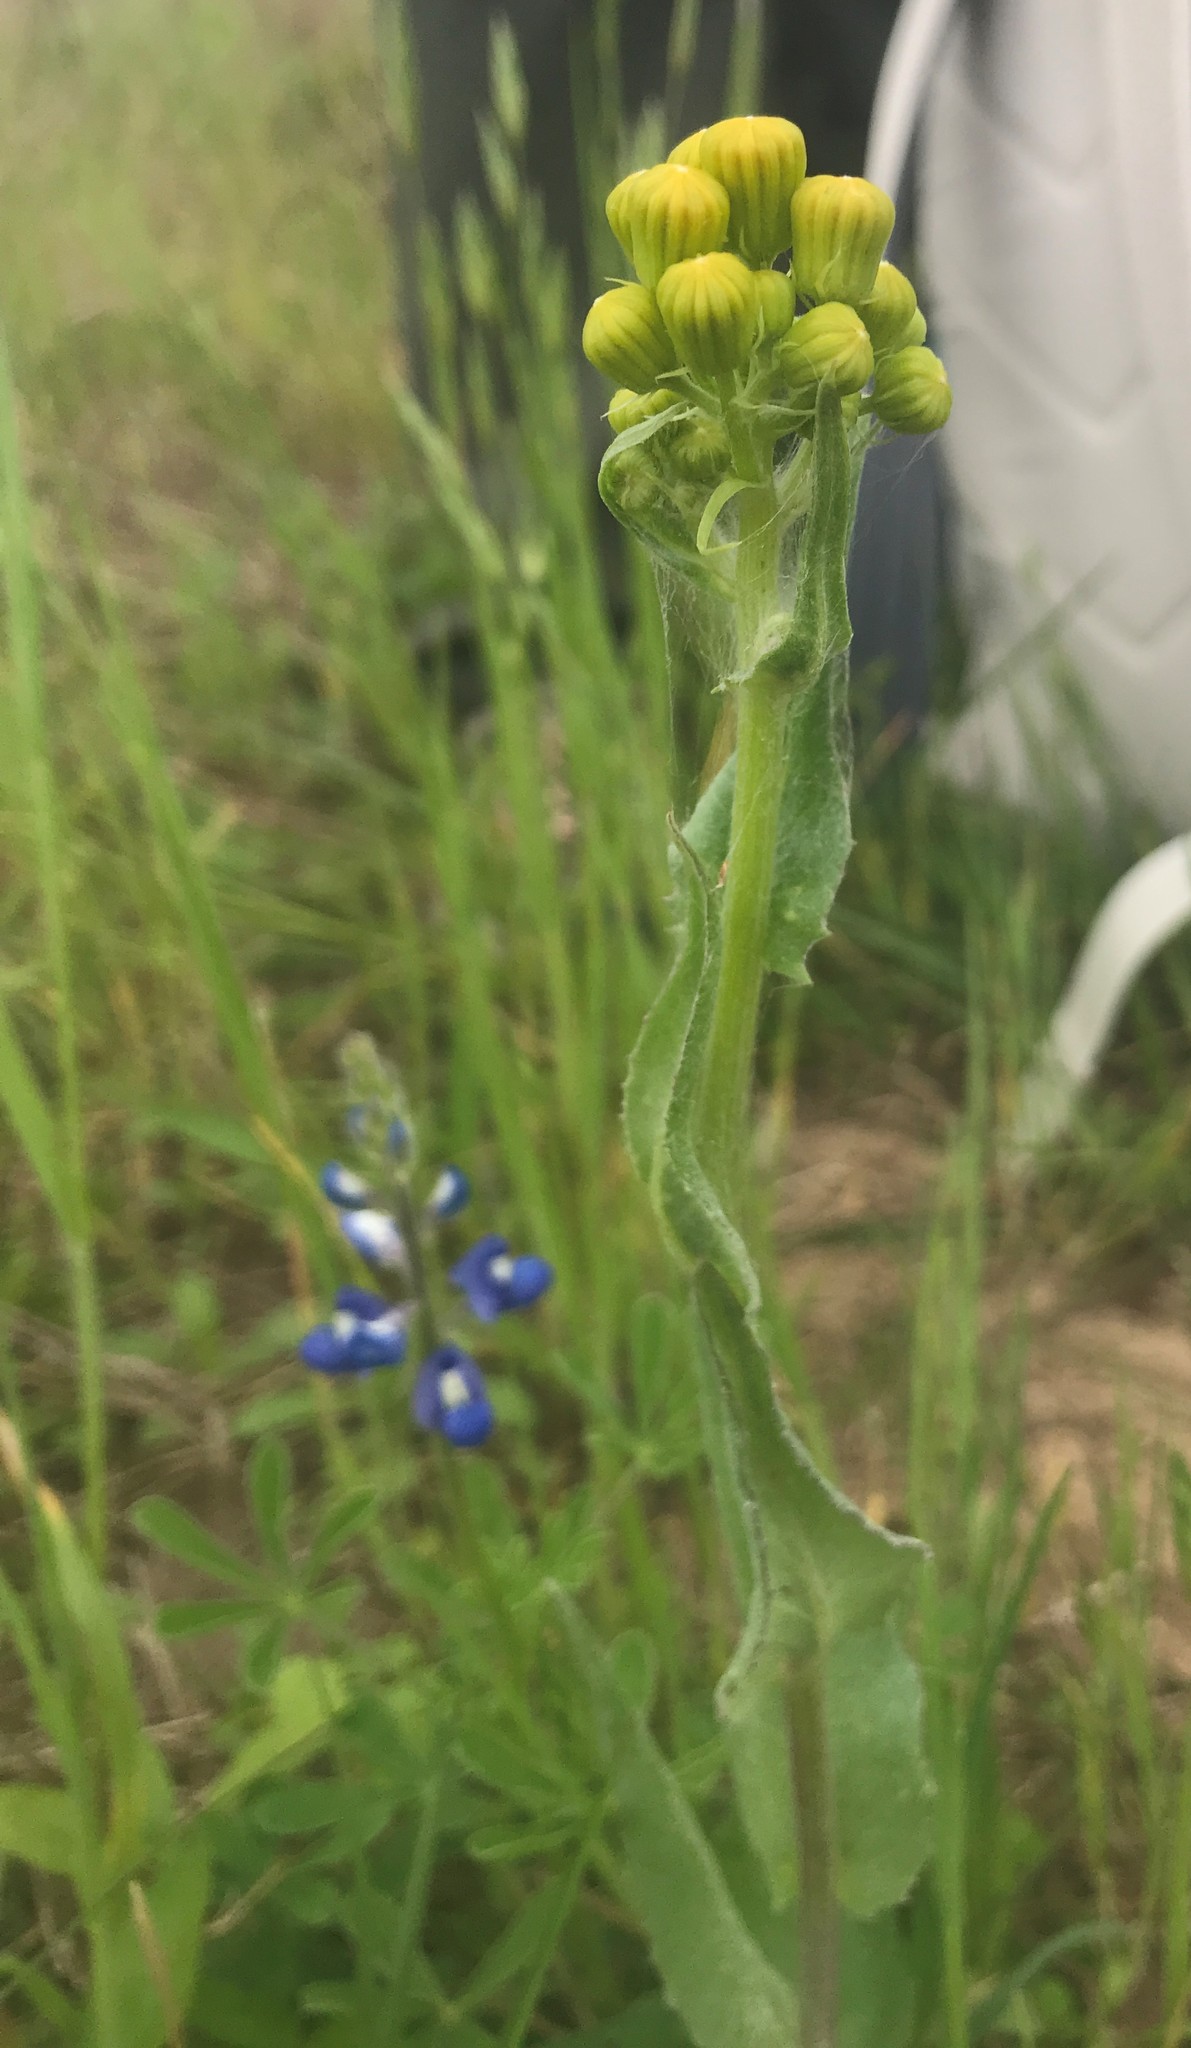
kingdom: Plantae
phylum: Tracheophyta
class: Magnoliopsida
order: Asterales
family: Asteraceae
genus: Senecio
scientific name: Senecio ampullaceus
